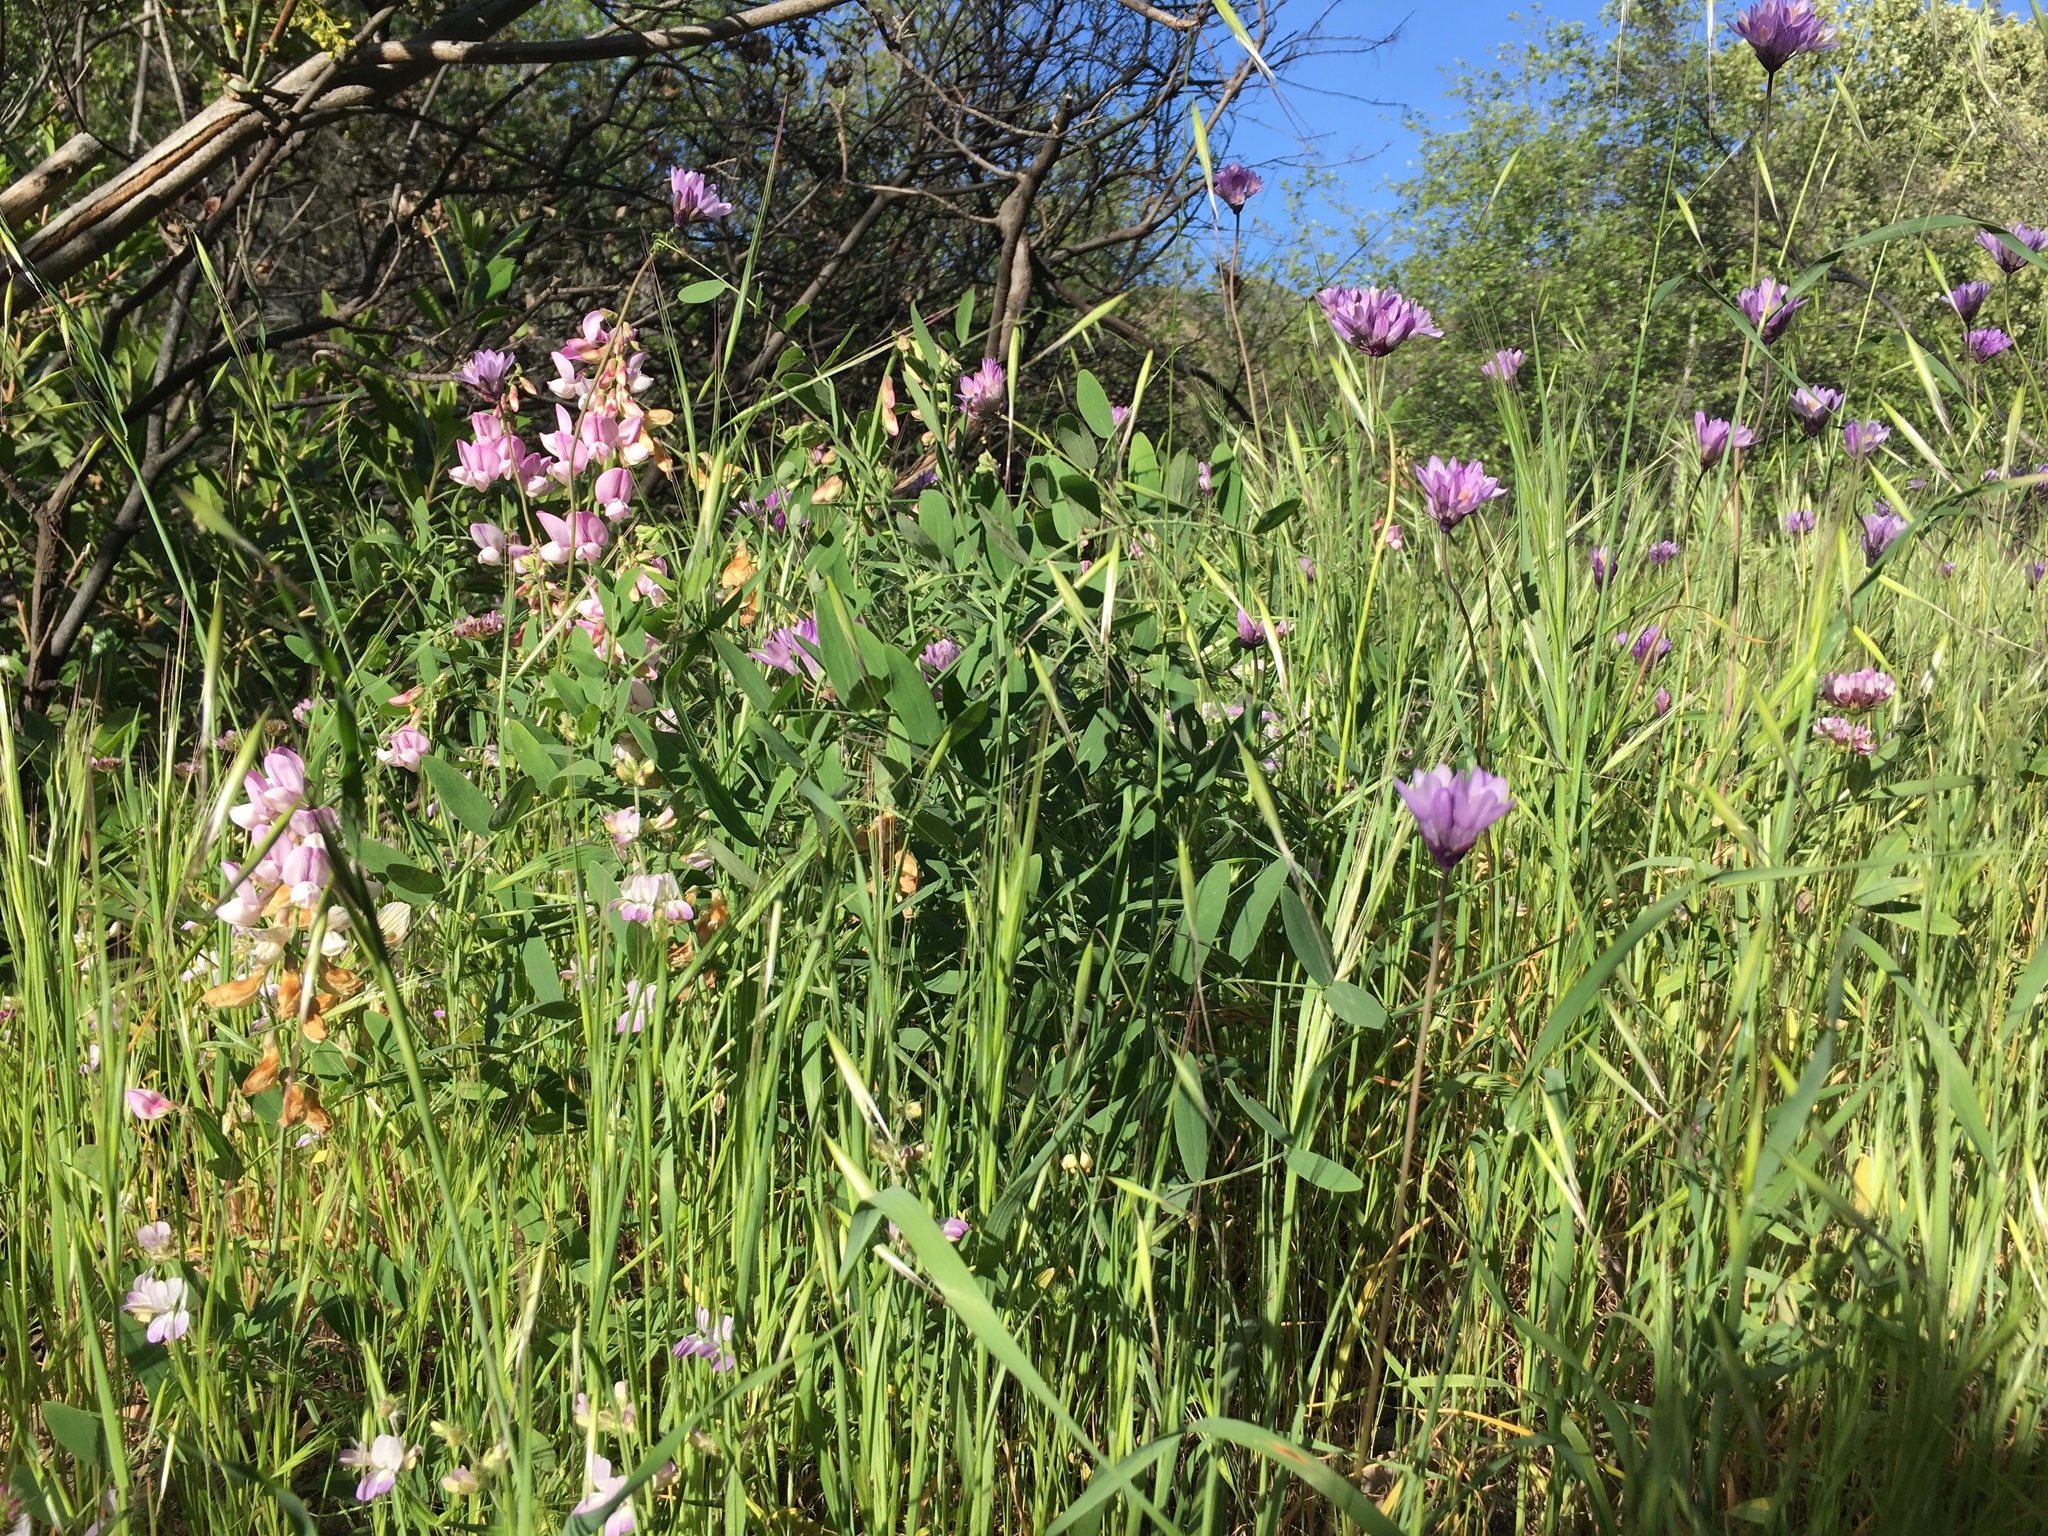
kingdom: Plantae
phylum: Tracheophyta
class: Magnoliopsida
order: Fabales
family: Fabaceae
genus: Lathyrus
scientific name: Lathyrus vestitus
